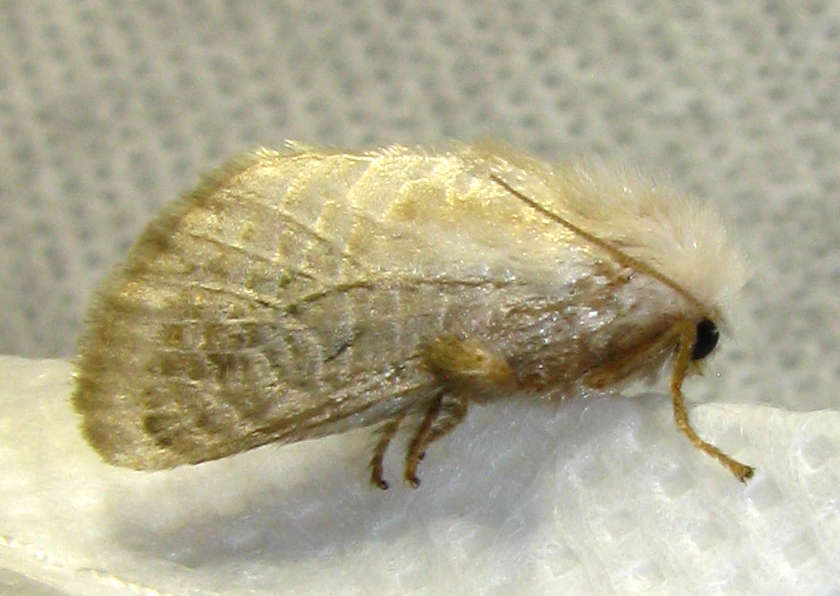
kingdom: Animalia
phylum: Arthropoda
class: Insecta
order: Lepidoptera
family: Limacodidae
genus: Doratifera
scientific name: Doratifera pinguis
